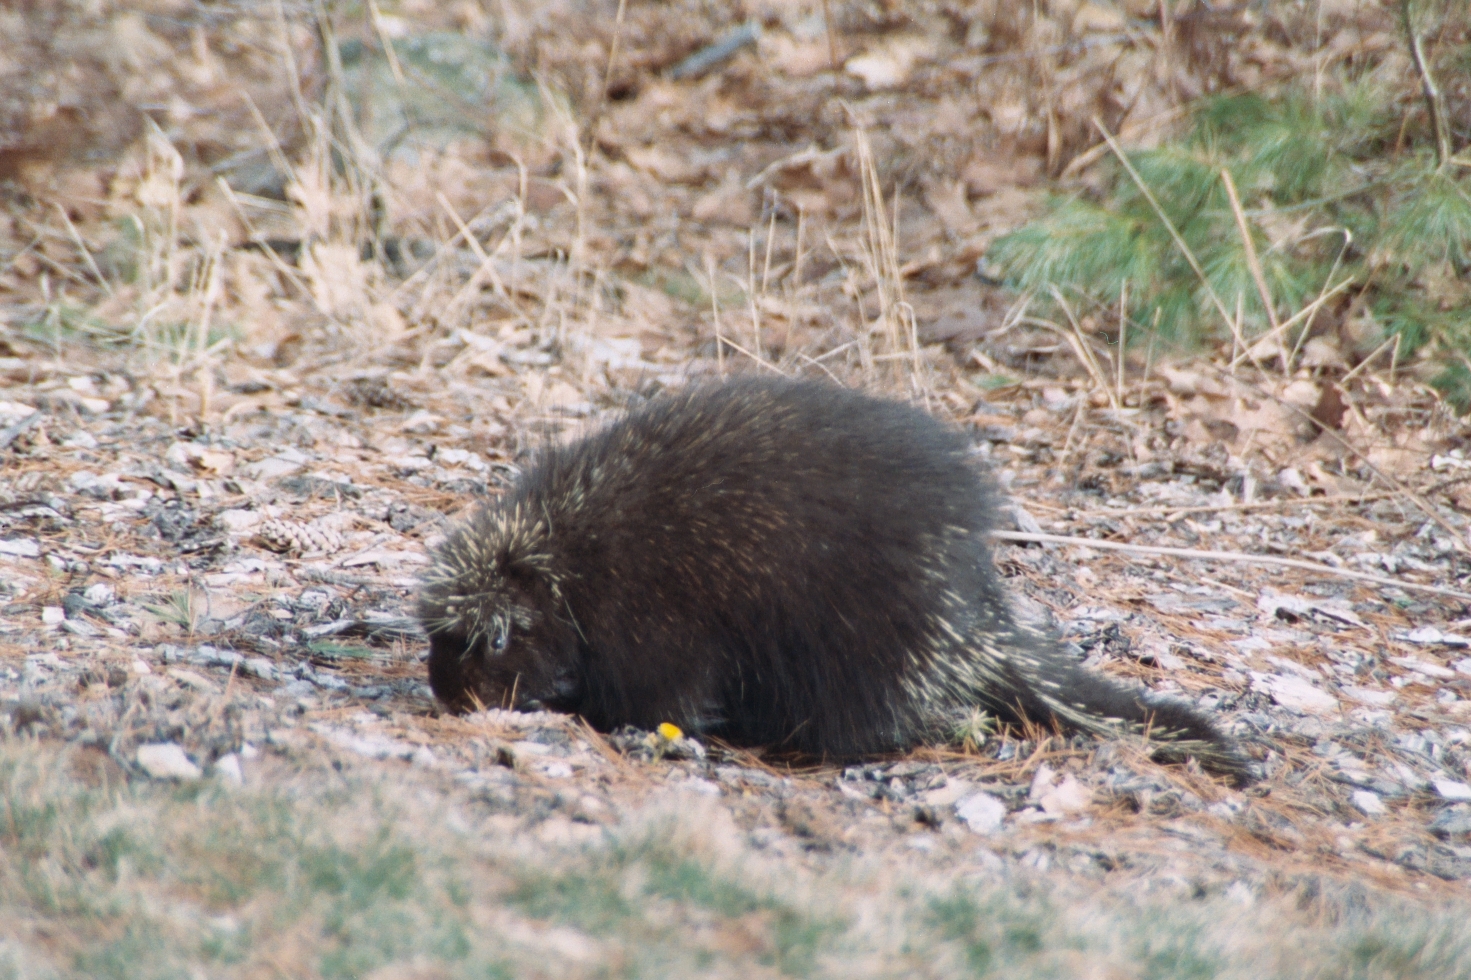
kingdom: Animalia
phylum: Chordata
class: Mammalia
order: Rodentia
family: Erethizontidae
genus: Erethizon
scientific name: Erethizon dorsatus
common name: North american porcupine
